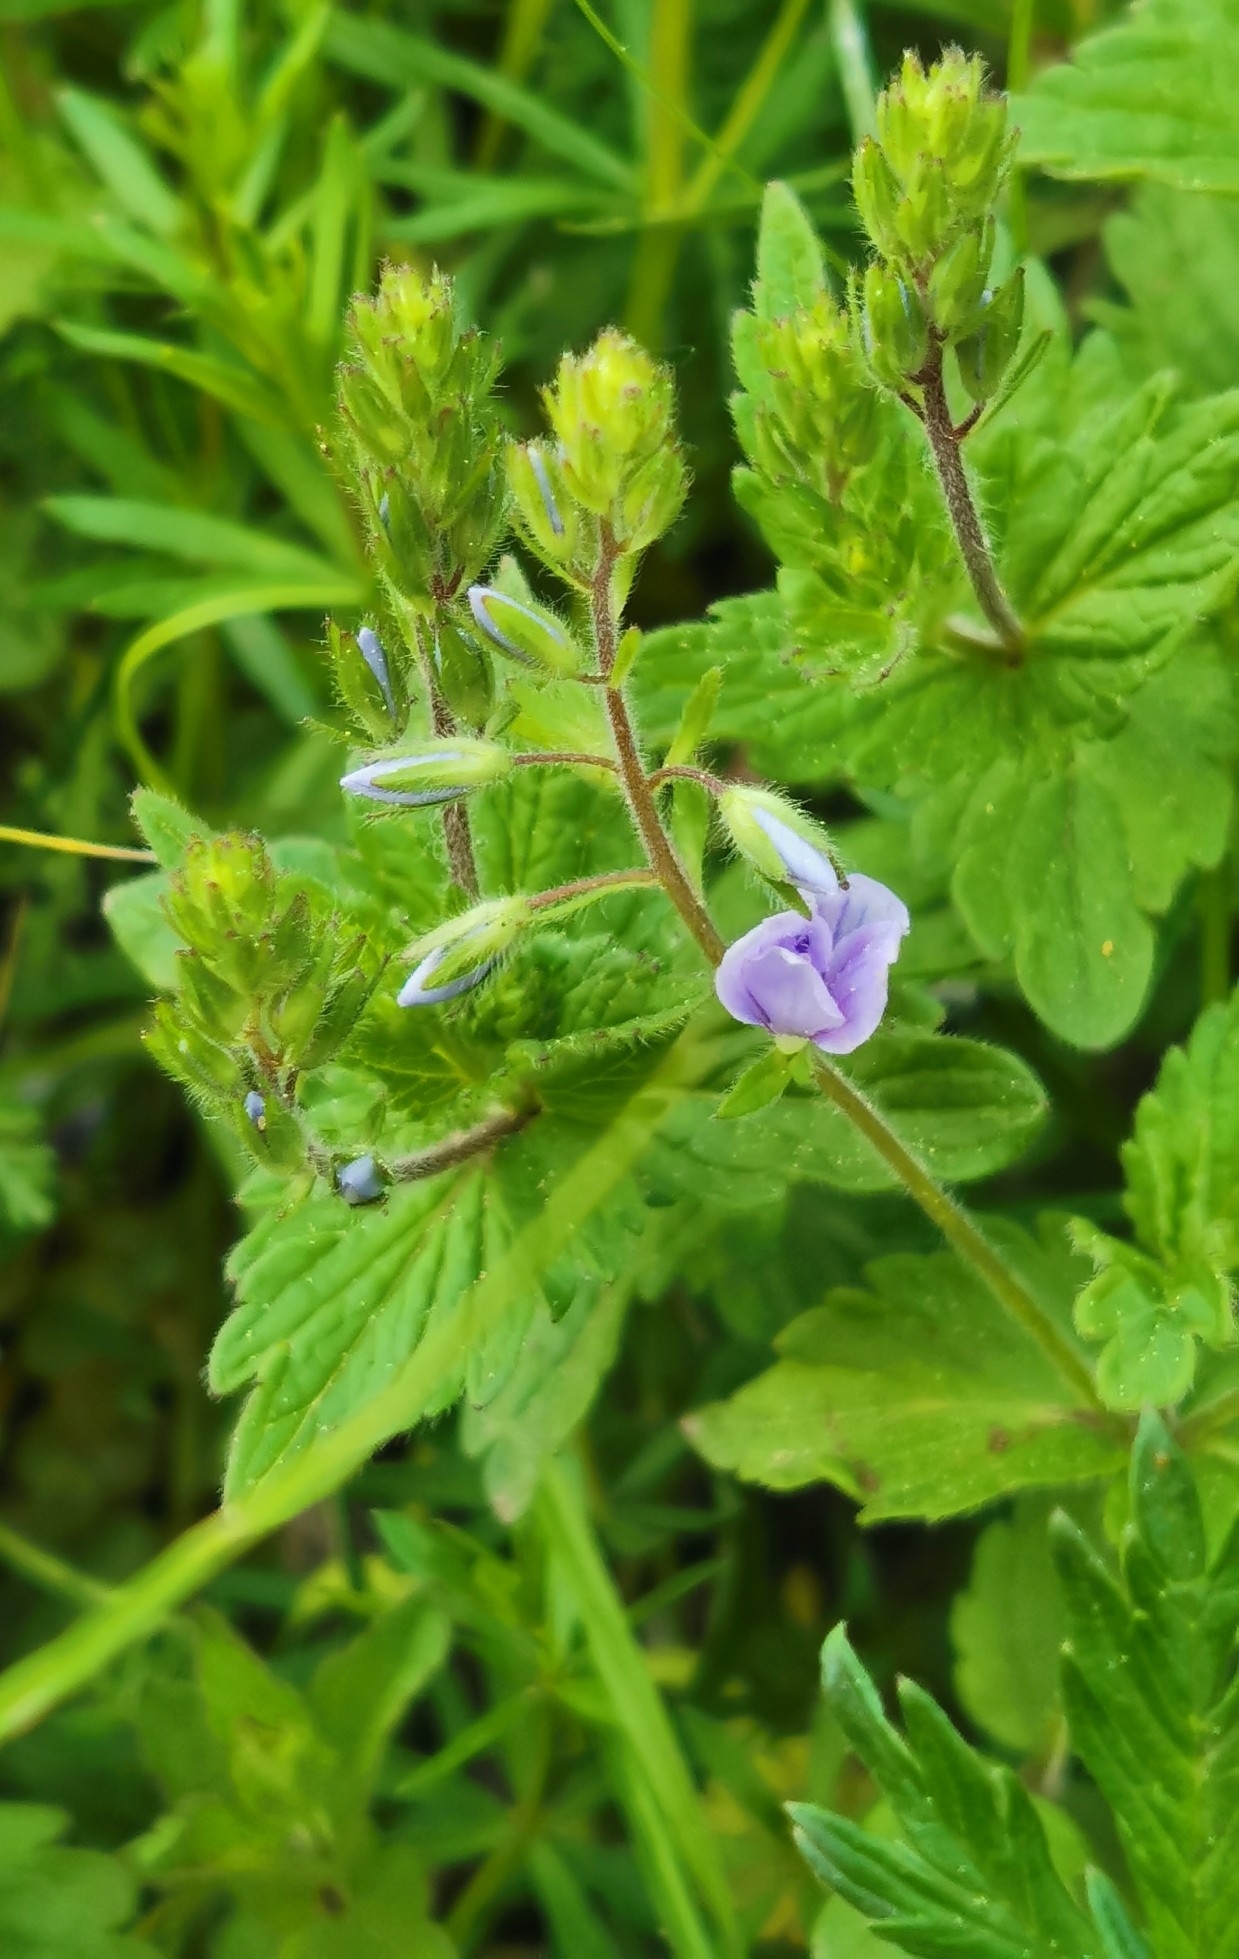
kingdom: Plantae
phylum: Tracheophyta
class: Magnoliopsida
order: Lamiales
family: Plantaginaceae
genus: Veronica
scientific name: Veronica chamaedrys
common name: Germander speedwell
